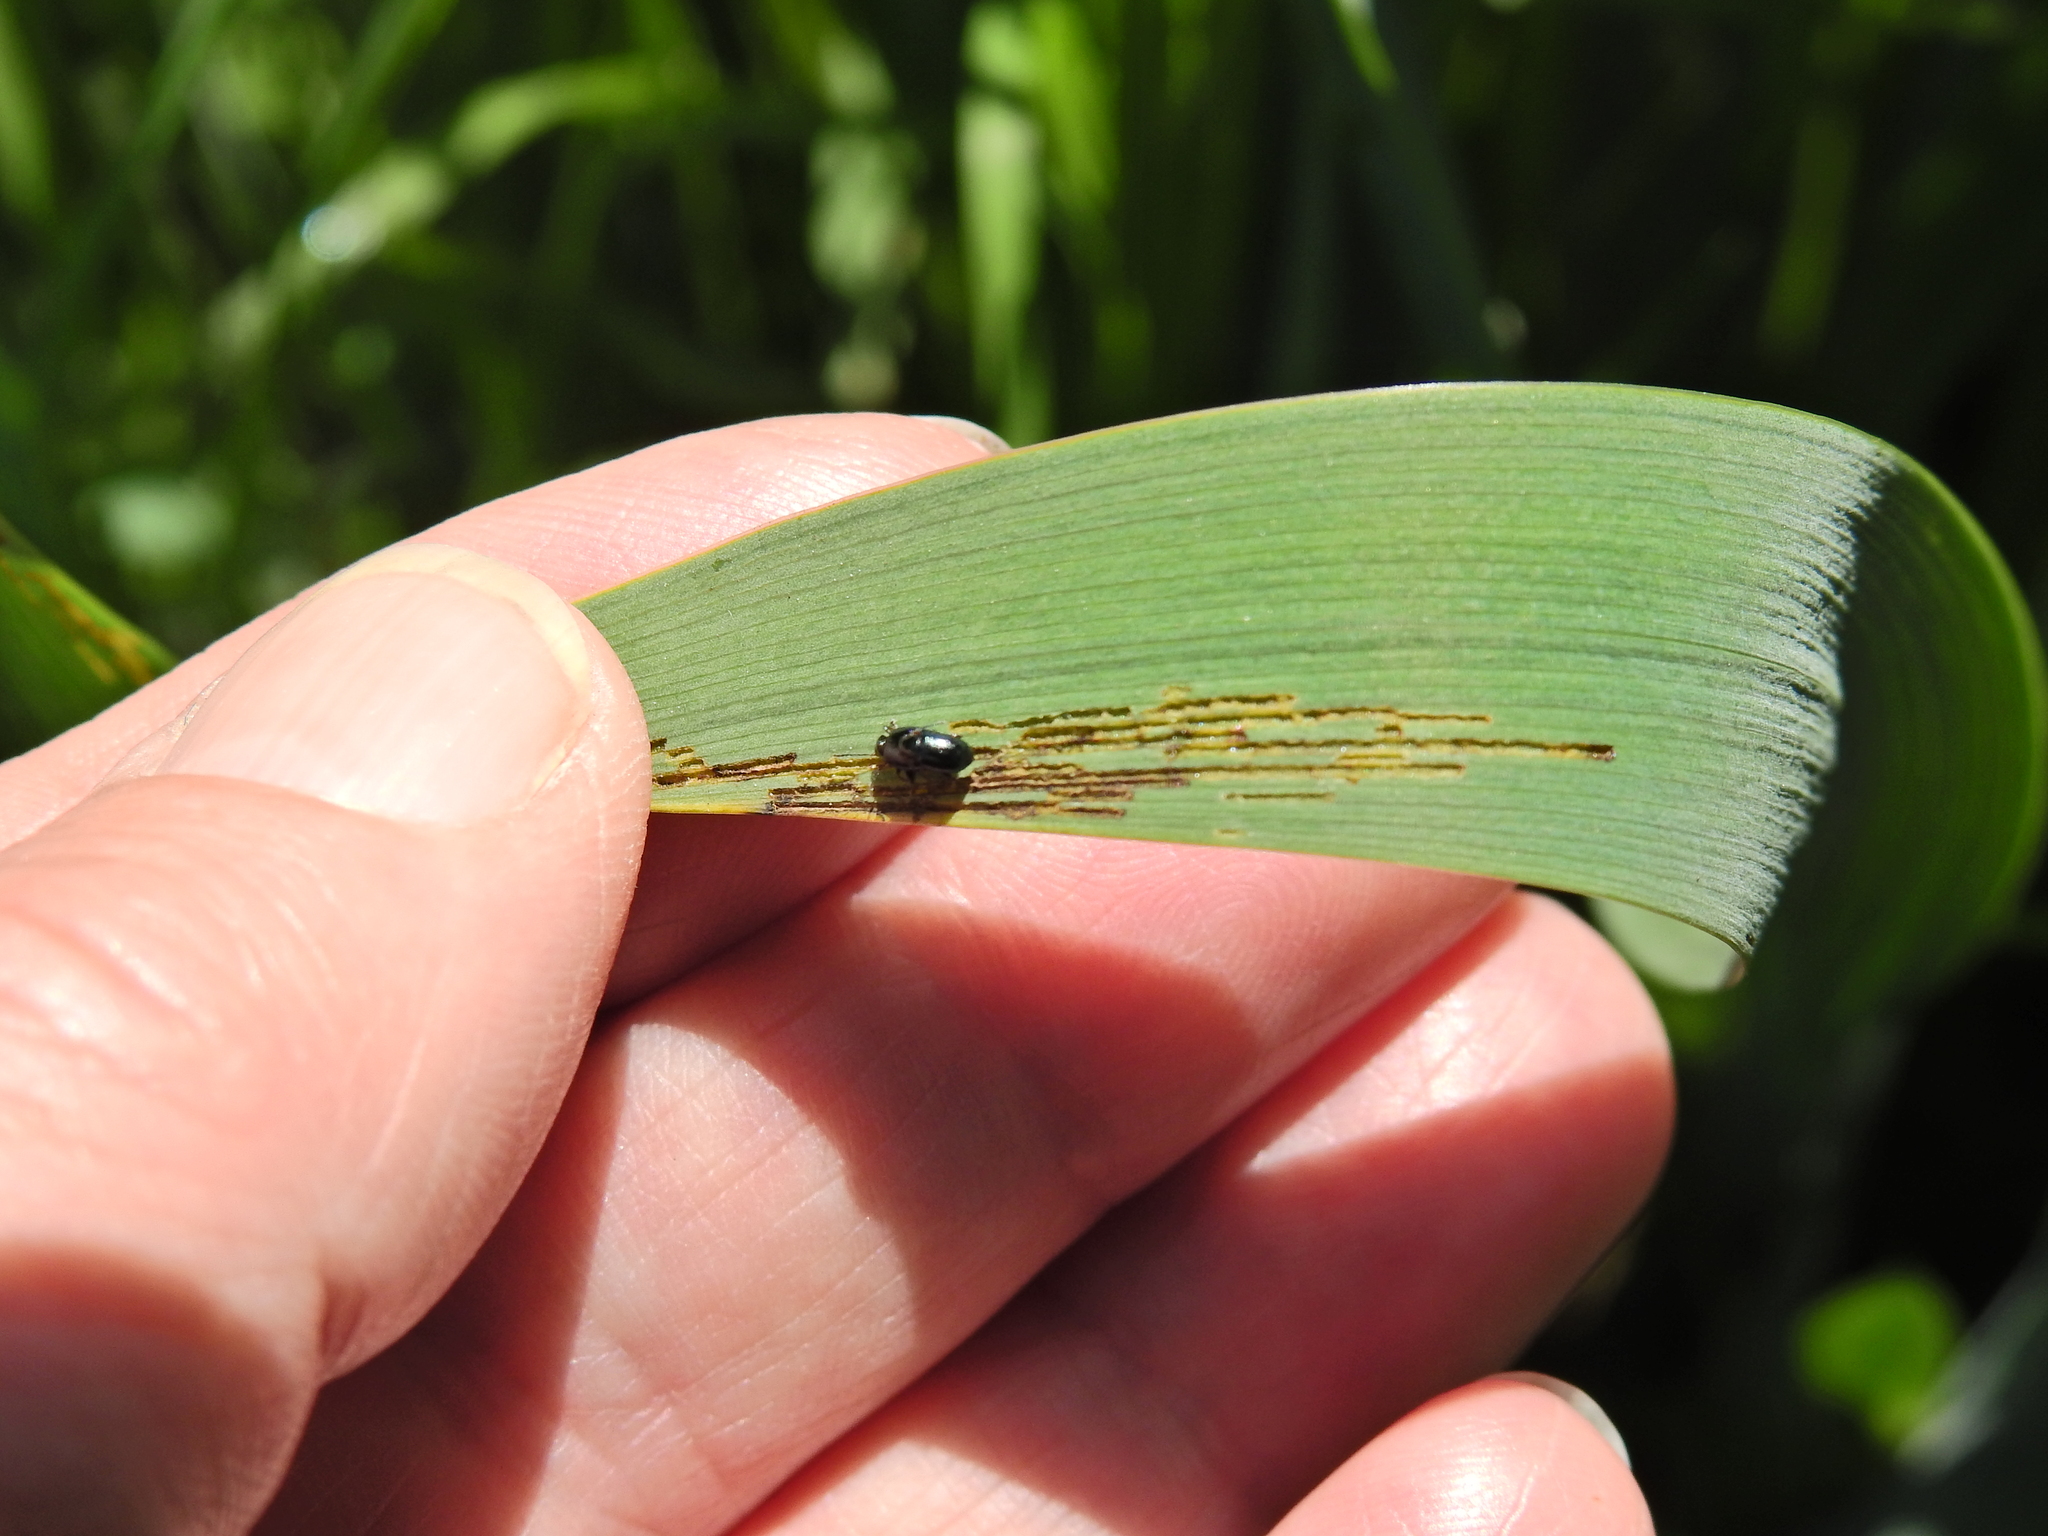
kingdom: Animalia
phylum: Arthropoda
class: Insecta
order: Coleoptera
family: Chrysomelidae
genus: Aphthona
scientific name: Aphthona nonstriata
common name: Iris flea beetle
